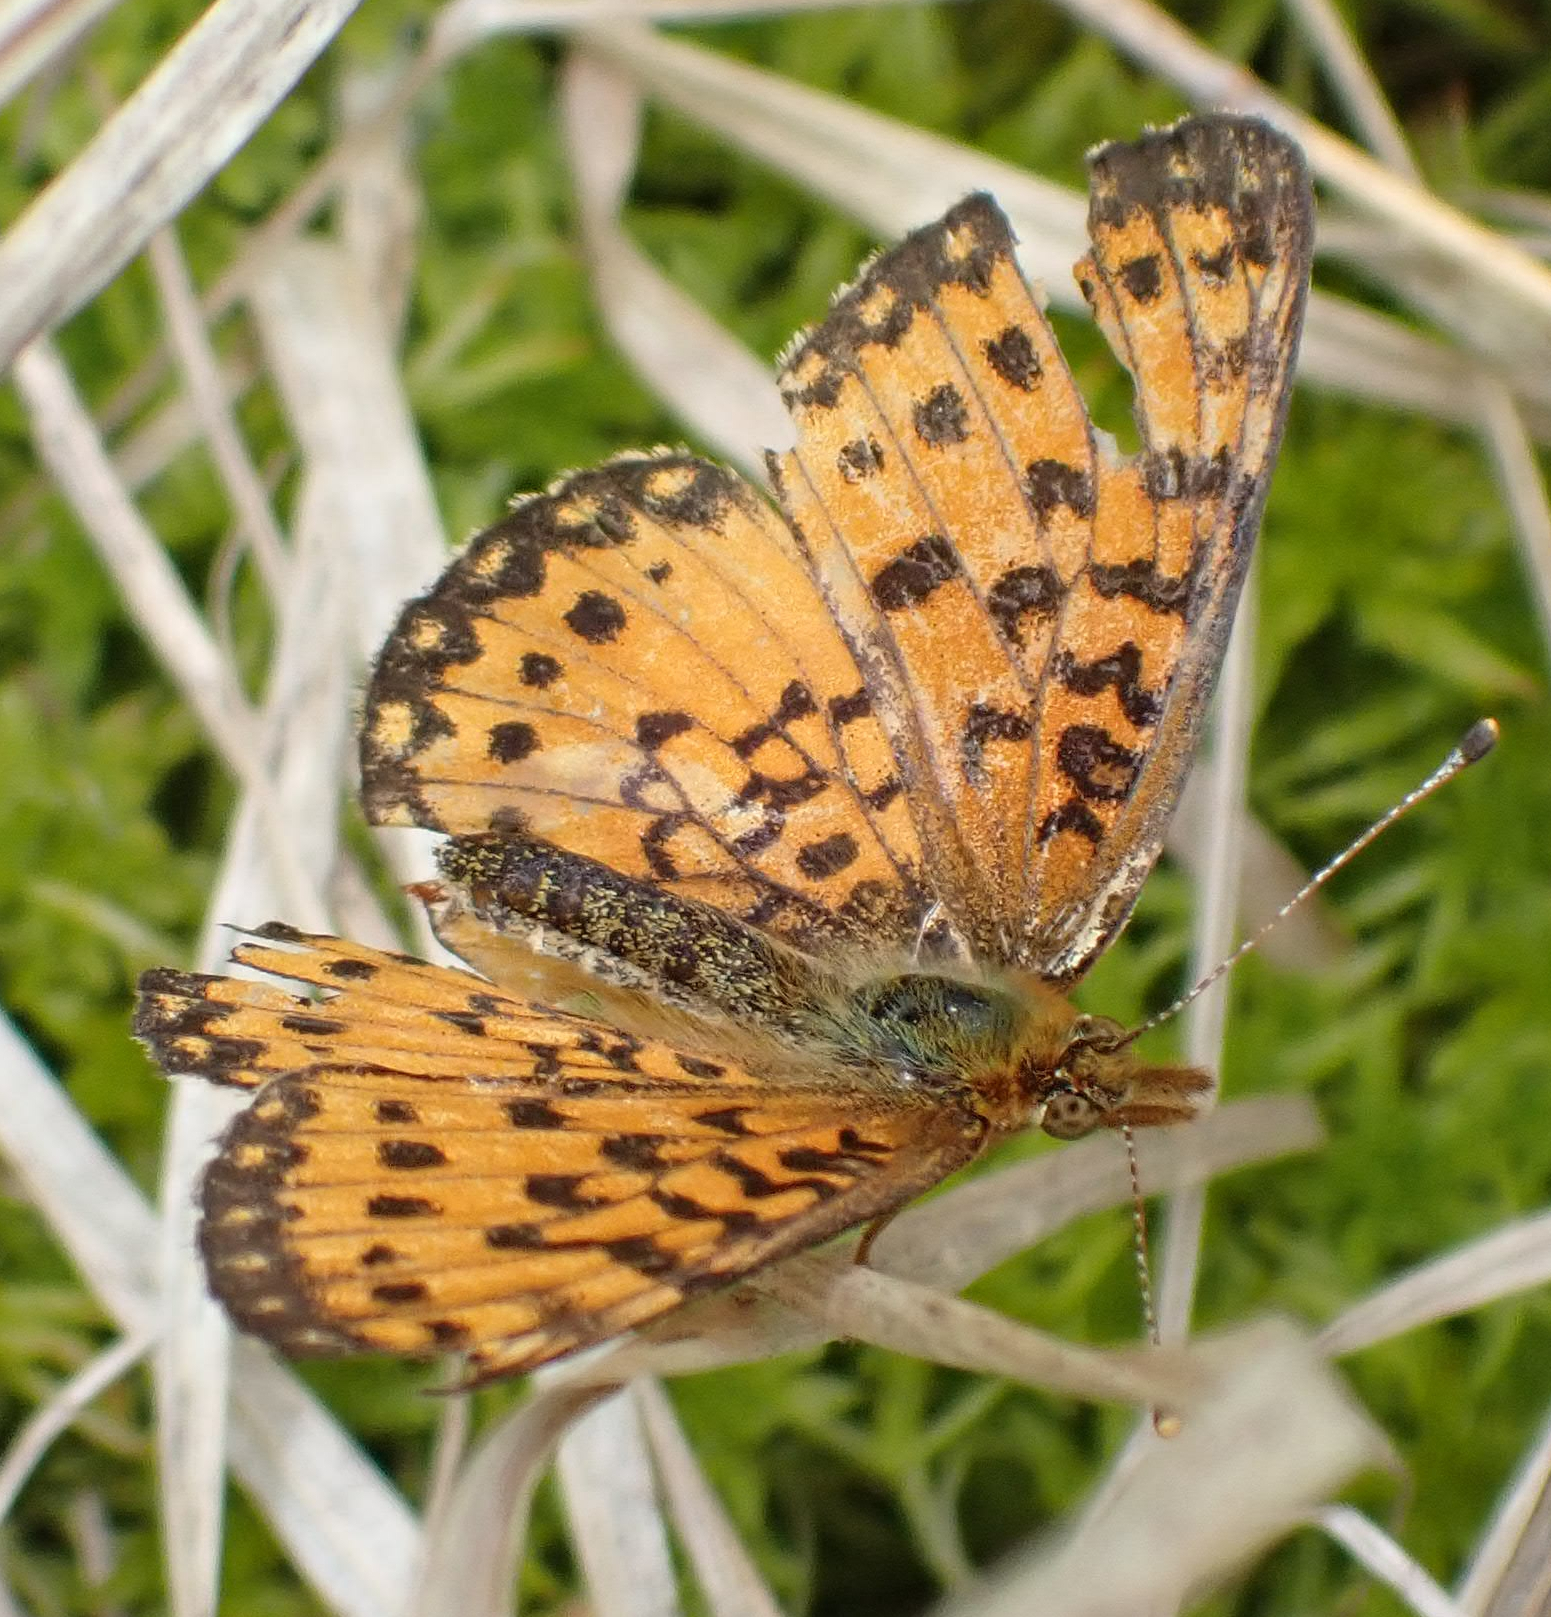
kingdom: Animalia
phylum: Arthropoda
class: Insecta
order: Lepidoptera
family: Nymphalidae
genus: Boloria
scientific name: Boloria
